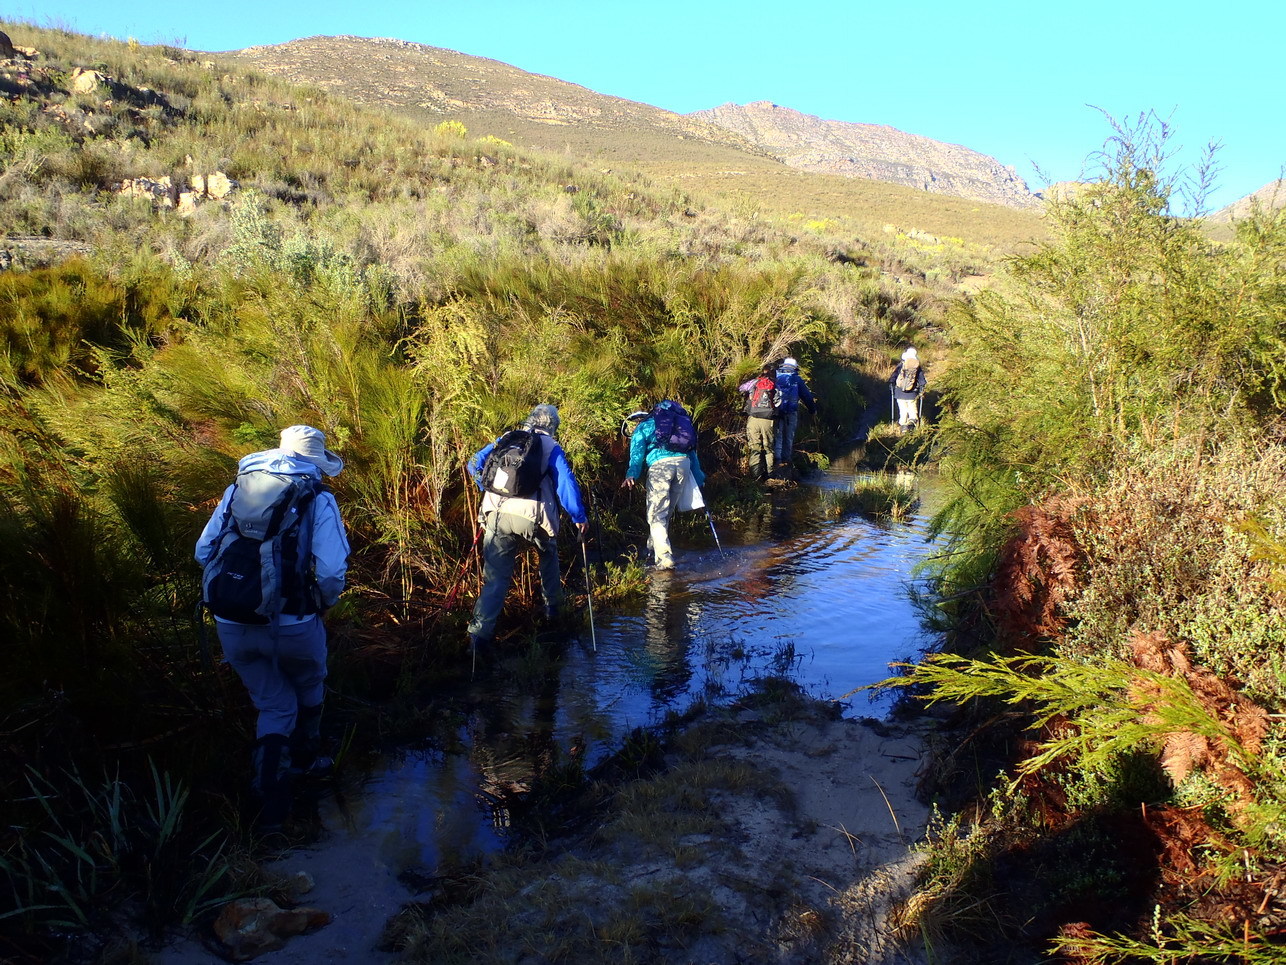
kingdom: Plantae
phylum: Tracheophyta
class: Magnoliopsida
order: Rosales
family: Rosaceae
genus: Cliffortia
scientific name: Cliffortia graminea
